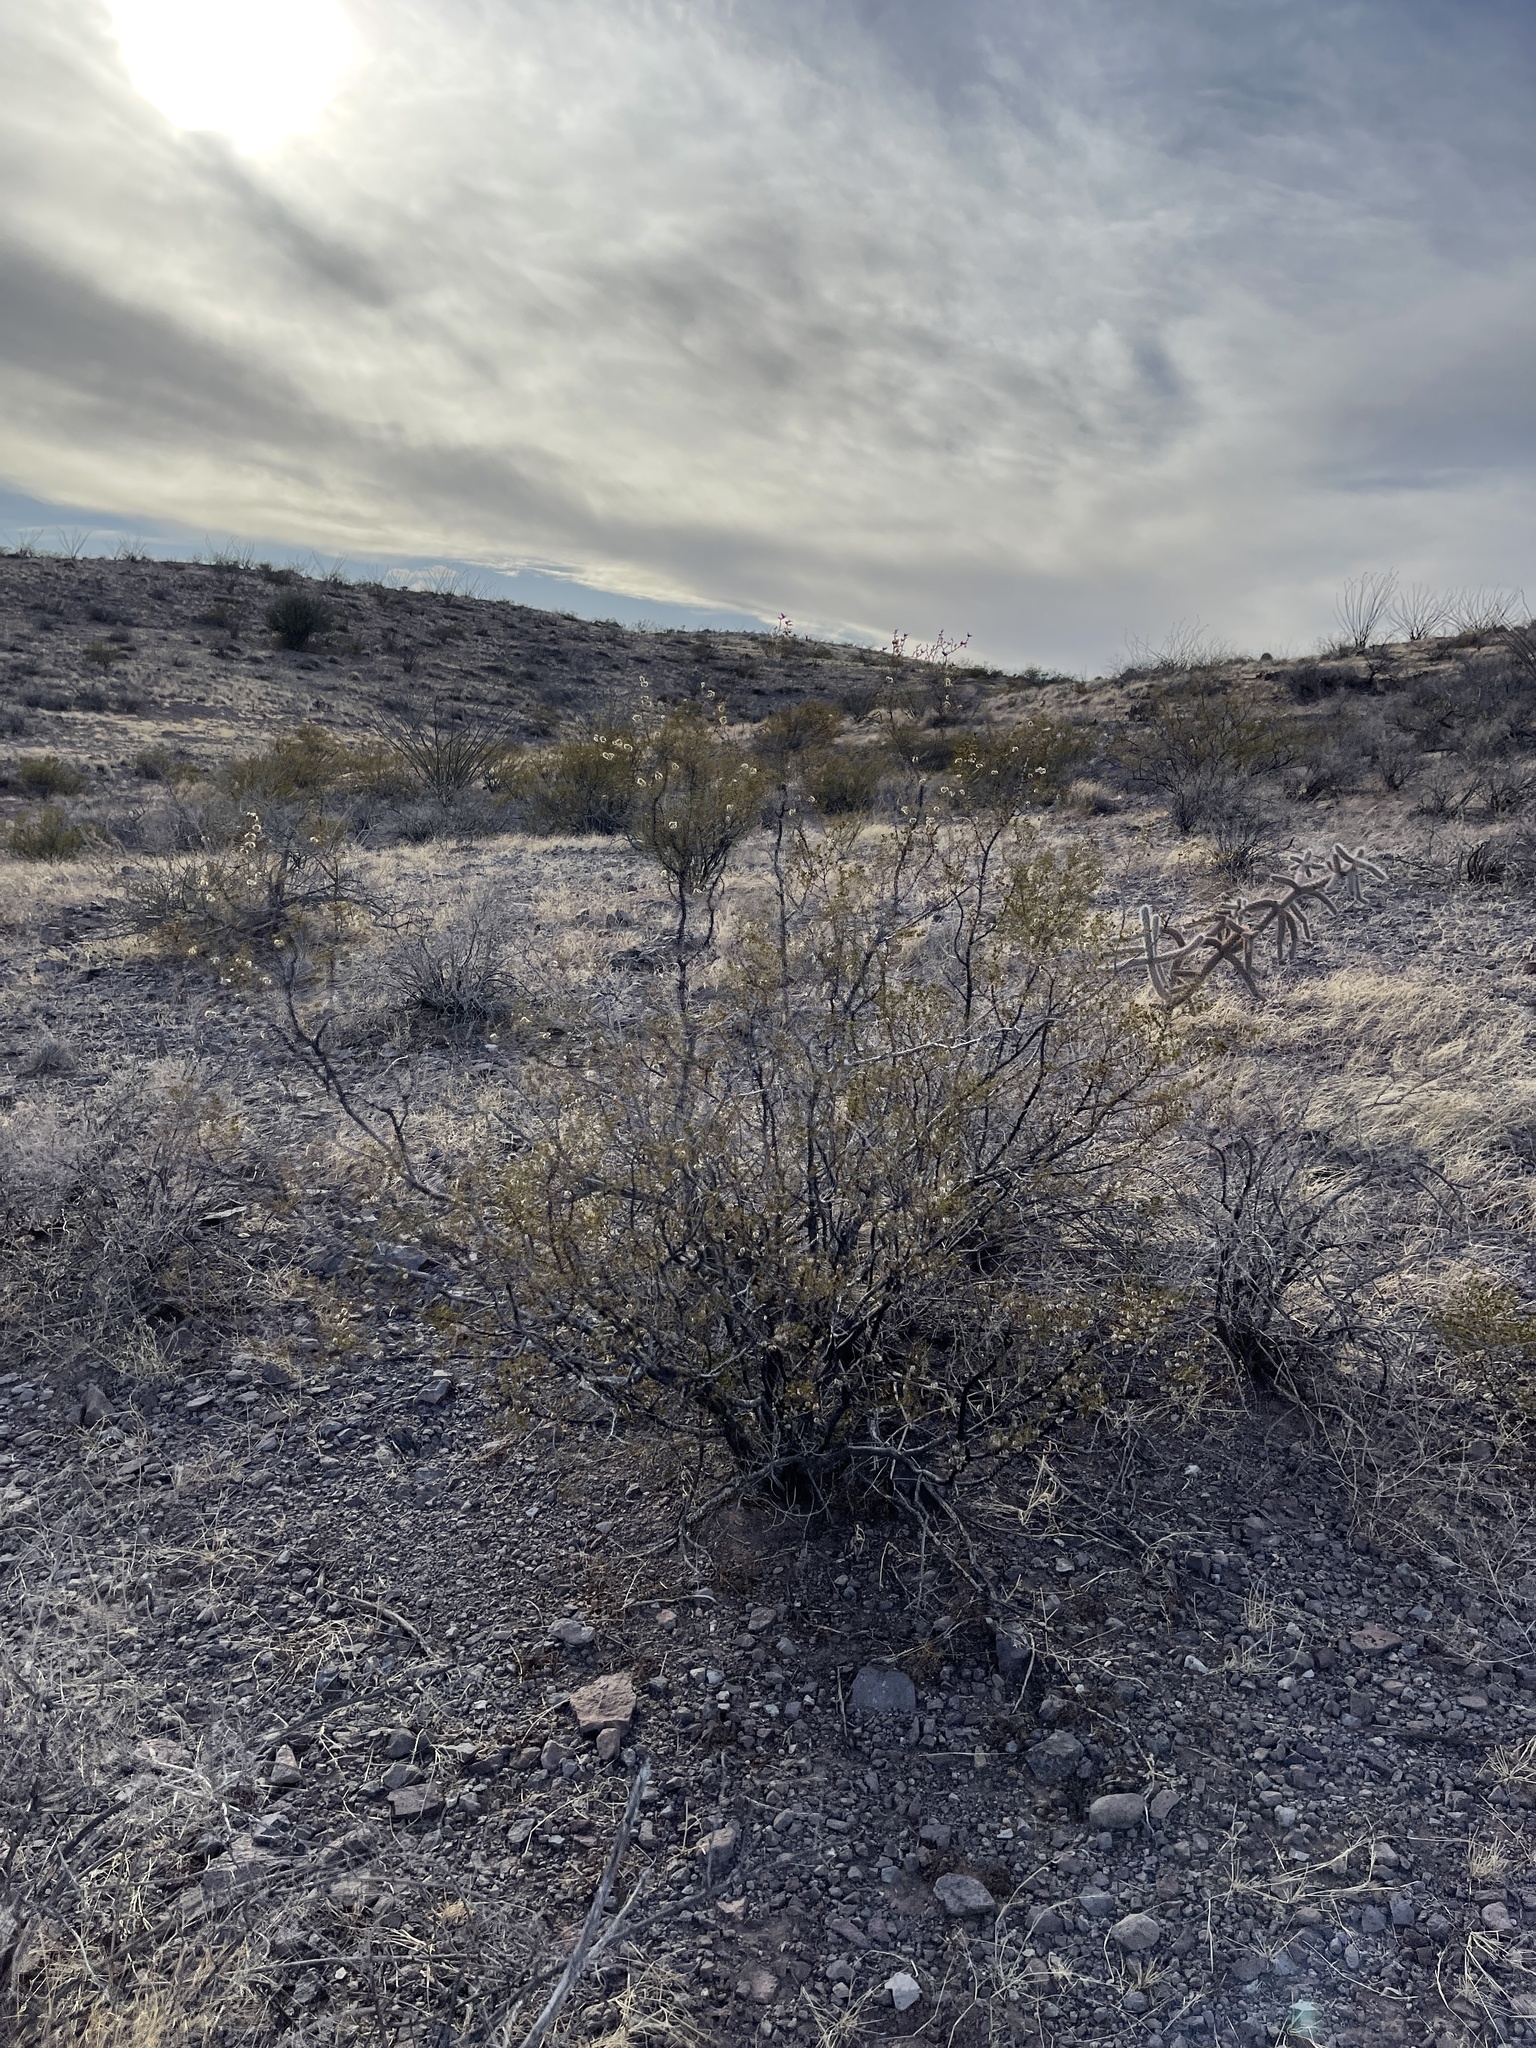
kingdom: Plantae
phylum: Tracheophyta
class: Magnoliopsida
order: Zygophyllales
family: Zygophyllaceae
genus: Larrea
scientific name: Larrea tridentata
